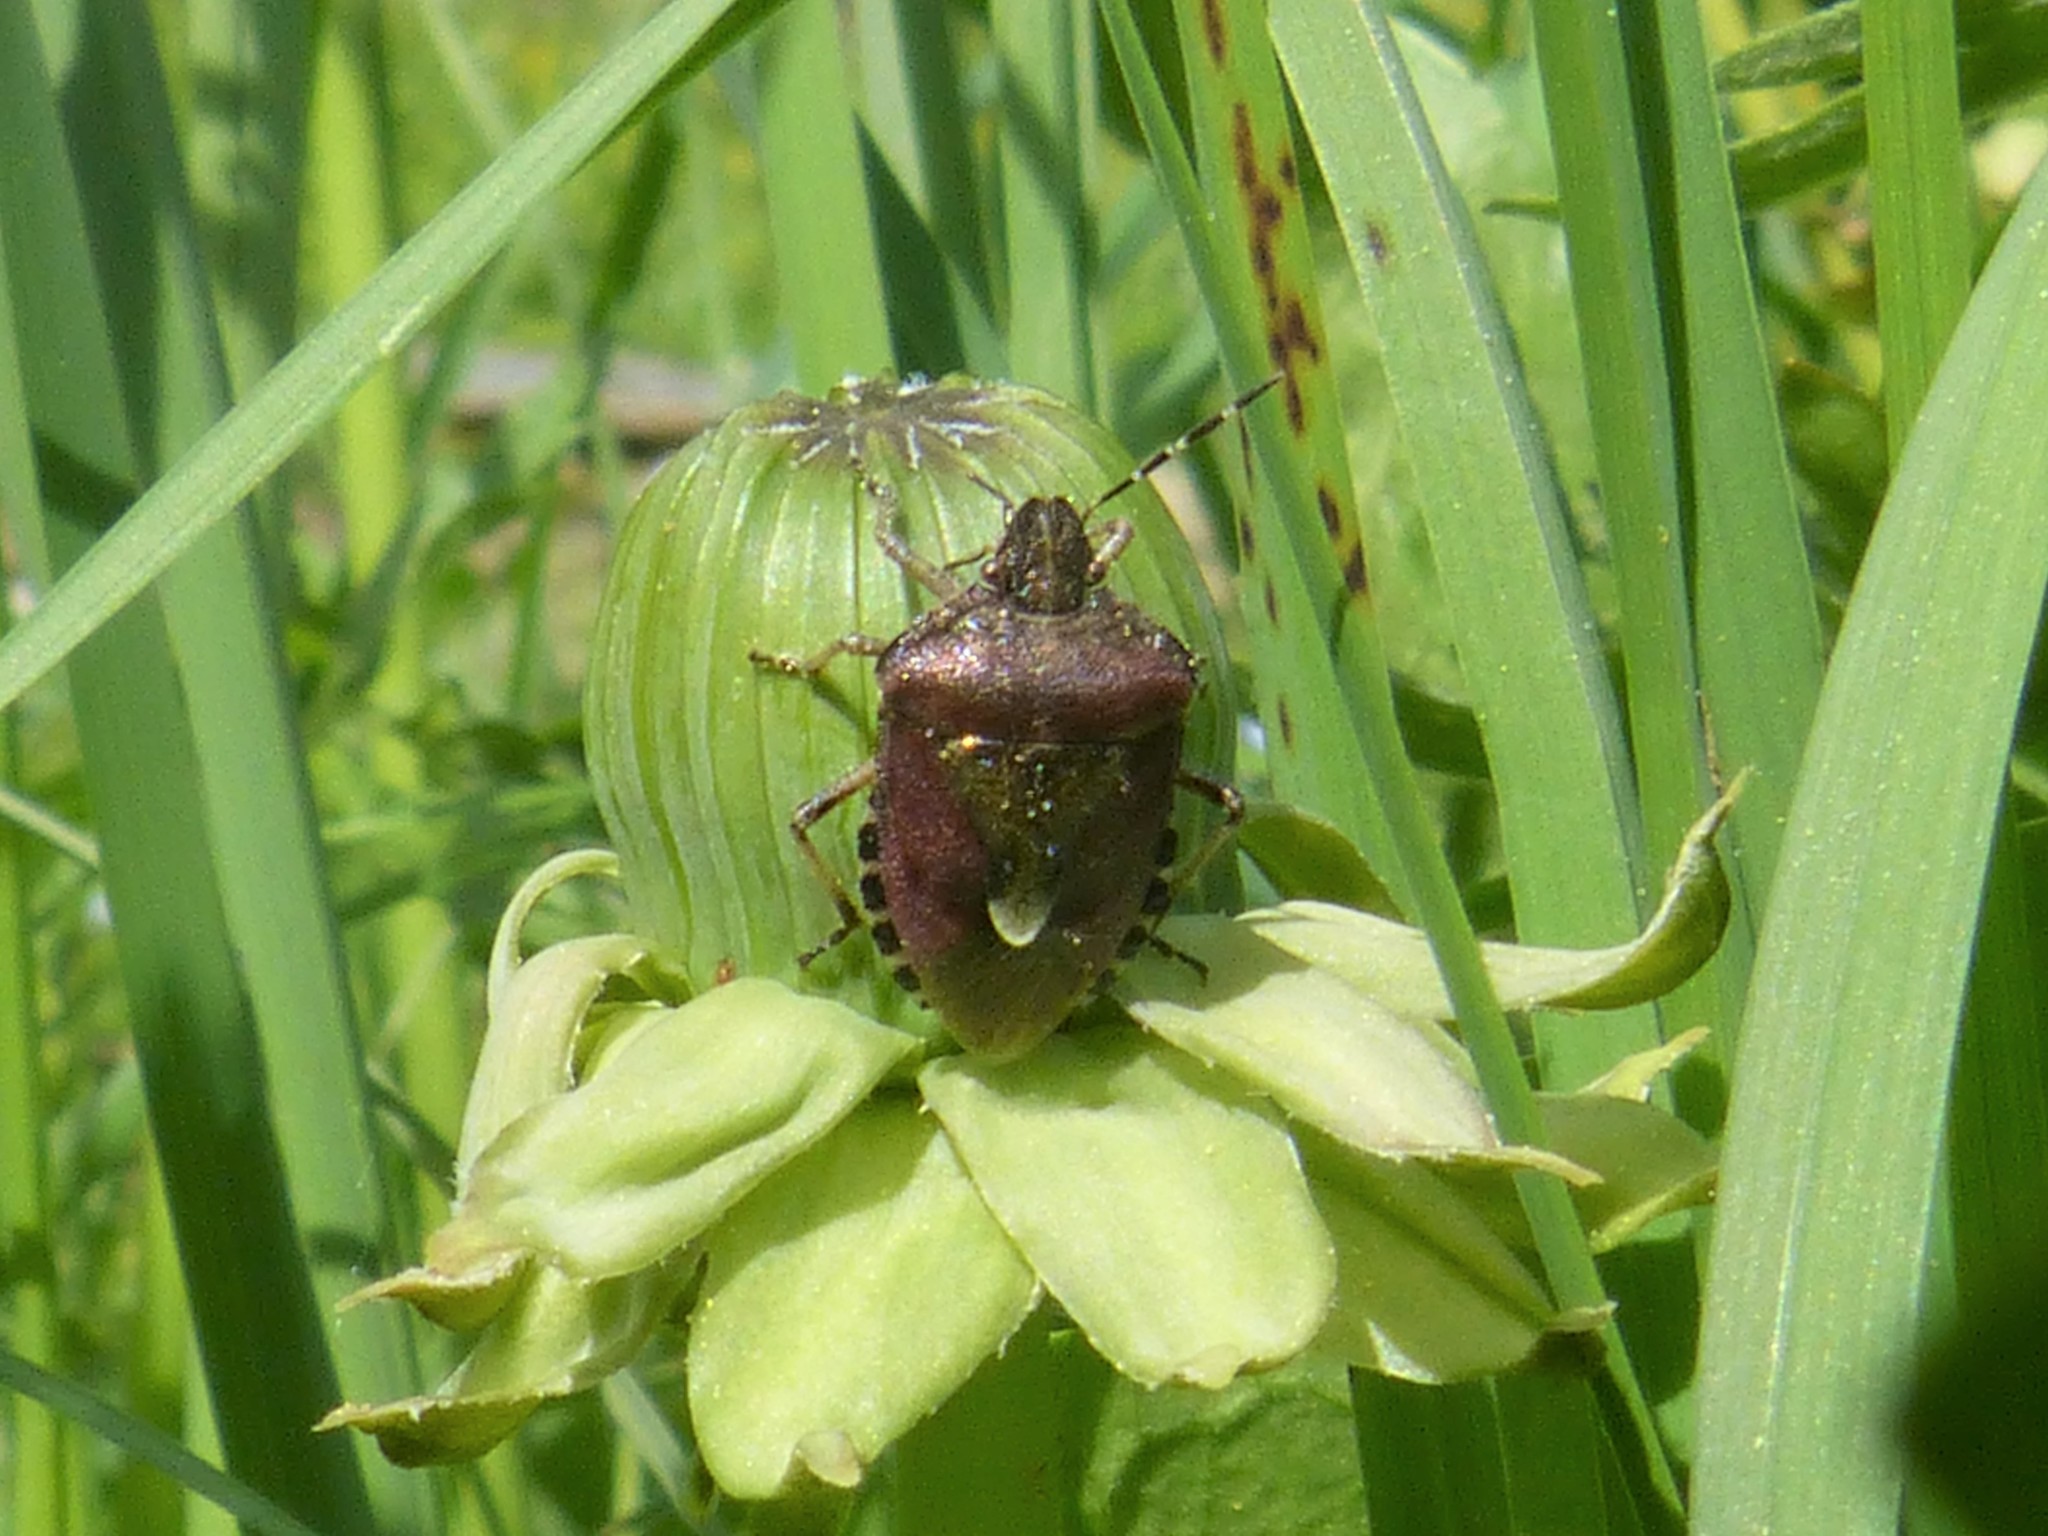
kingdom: Animalia
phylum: Arthropoda
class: Insecta
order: Hemiptera
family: Pentatomidae
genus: Dolycoris
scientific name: Dolycoris baccarum
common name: Sloe bug
